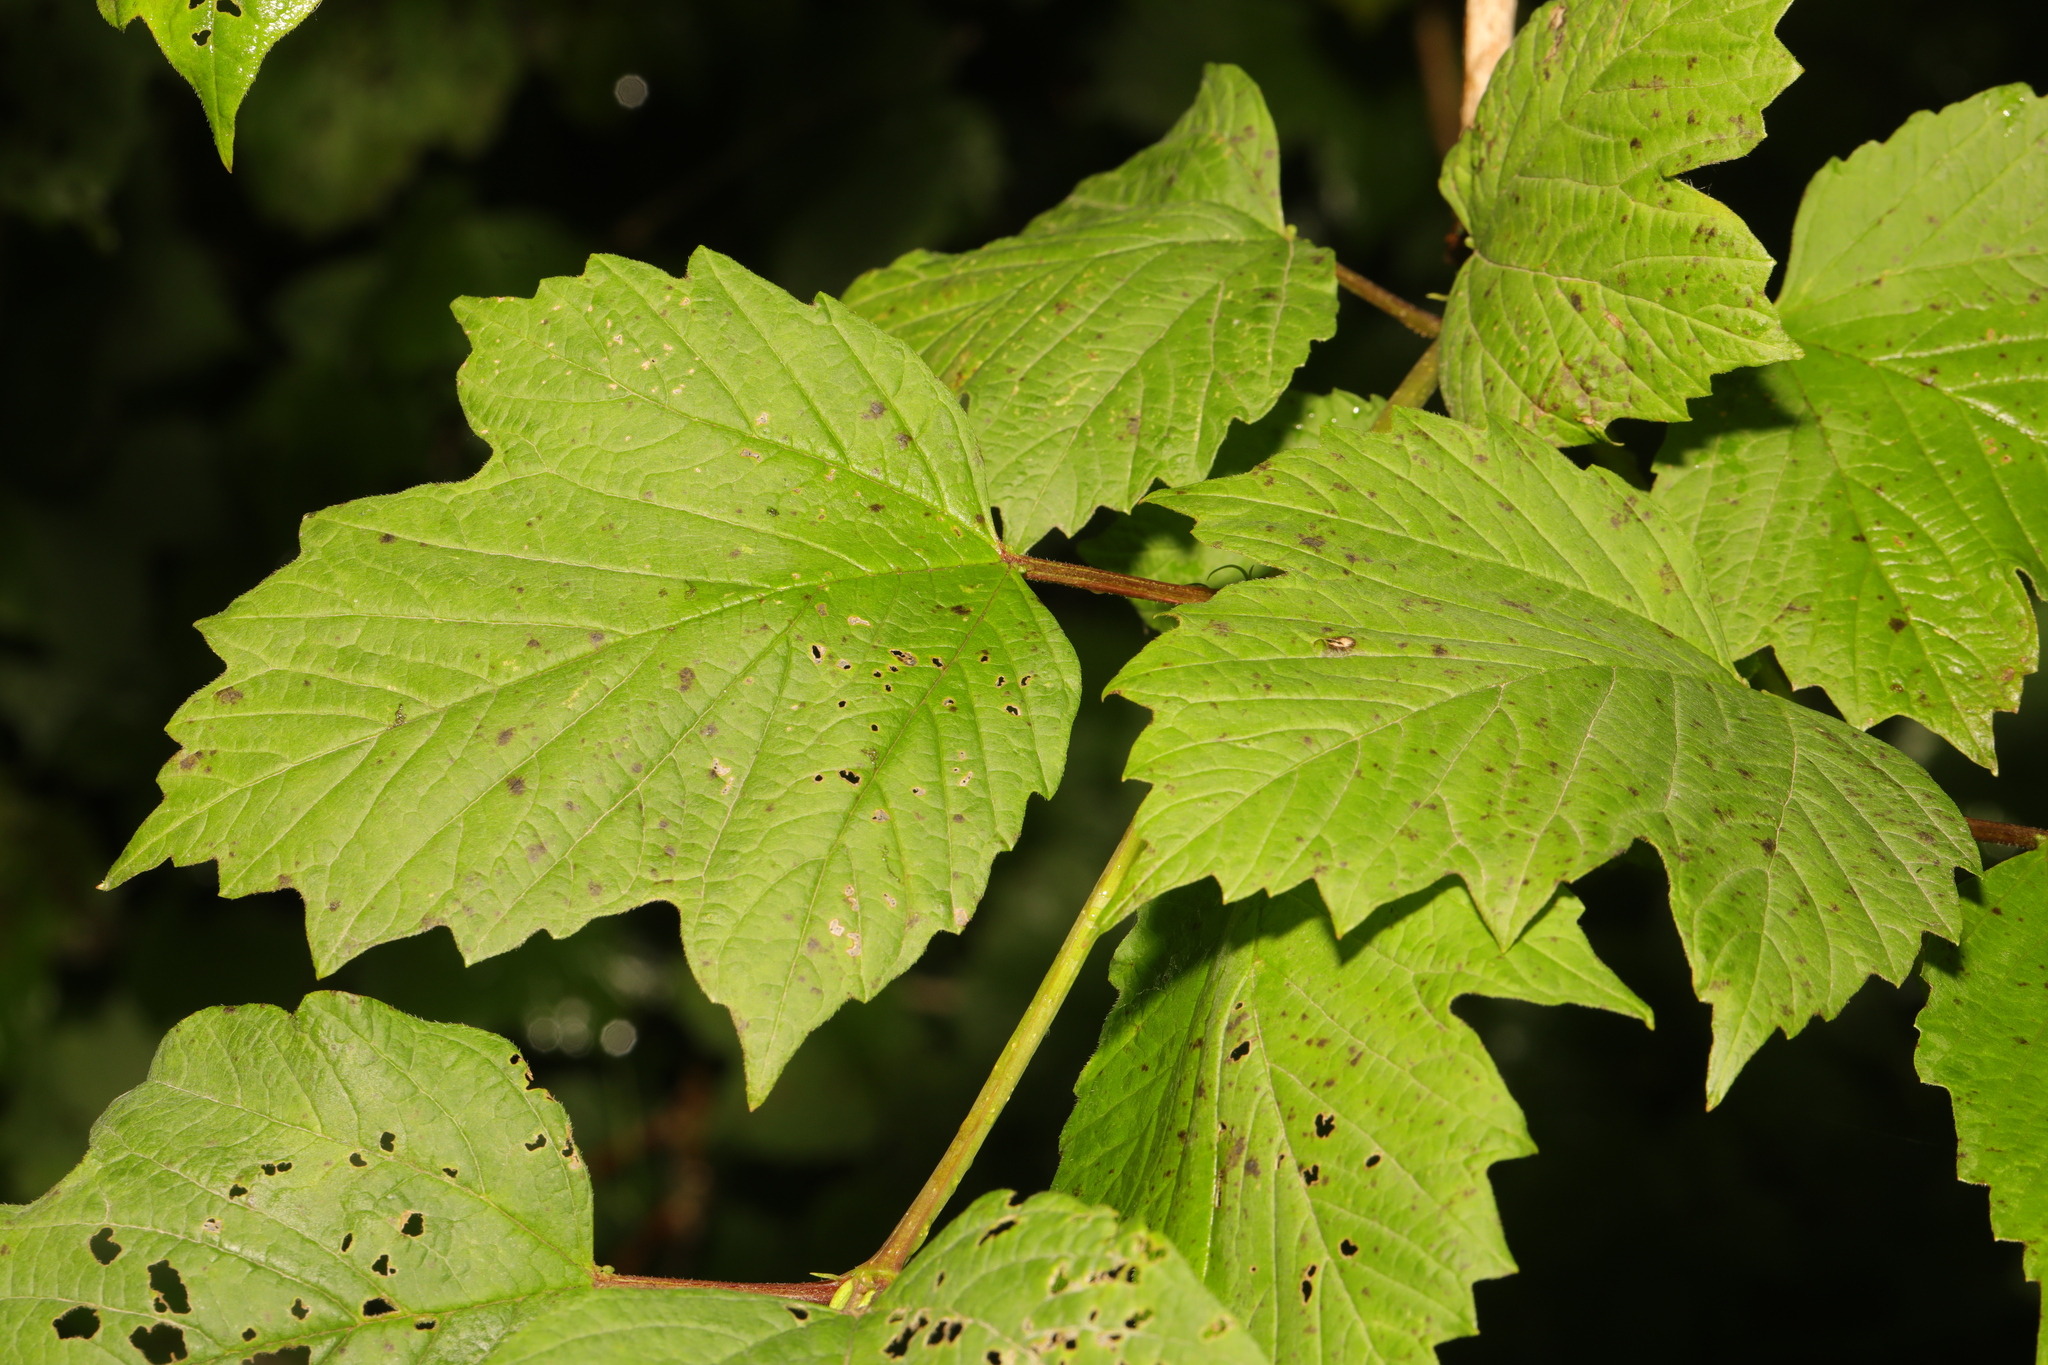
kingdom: Plantae
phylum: Tracheophyta
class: Magnoliopsida
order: Dipsacales
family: Viburnaceae
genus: Viburnum
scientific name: Viburnum opulus
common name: Guelder-rose
